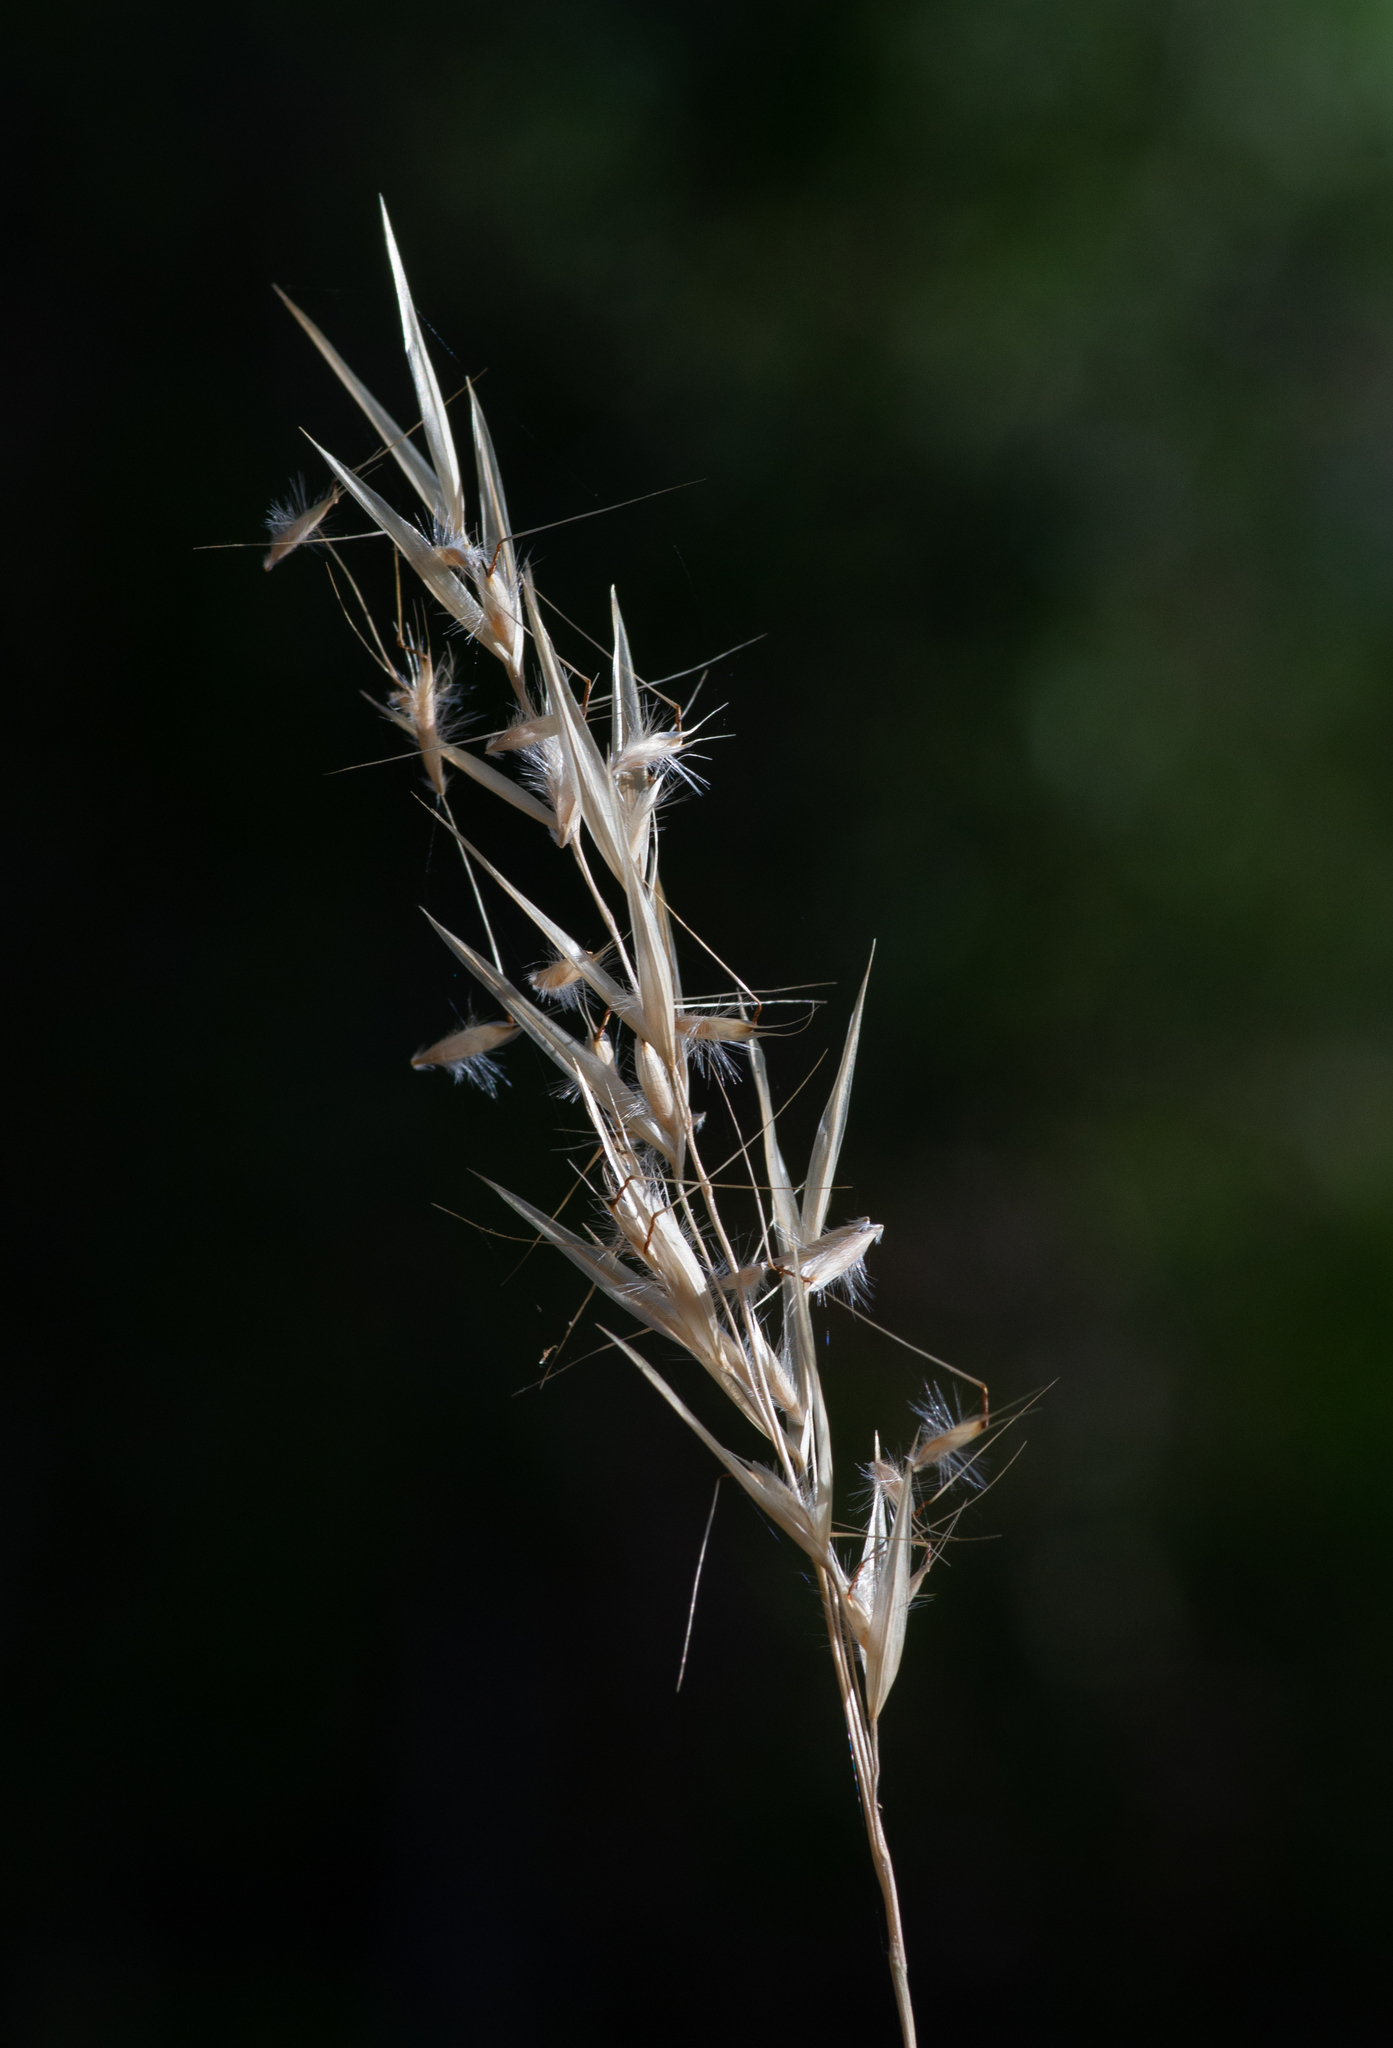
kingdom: Plantae
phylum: Tracheophyta
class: Liliopsida
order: Poales
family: Poaceae
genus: Danthonia
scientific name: Danthonia sericea
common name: Downy danthonia
